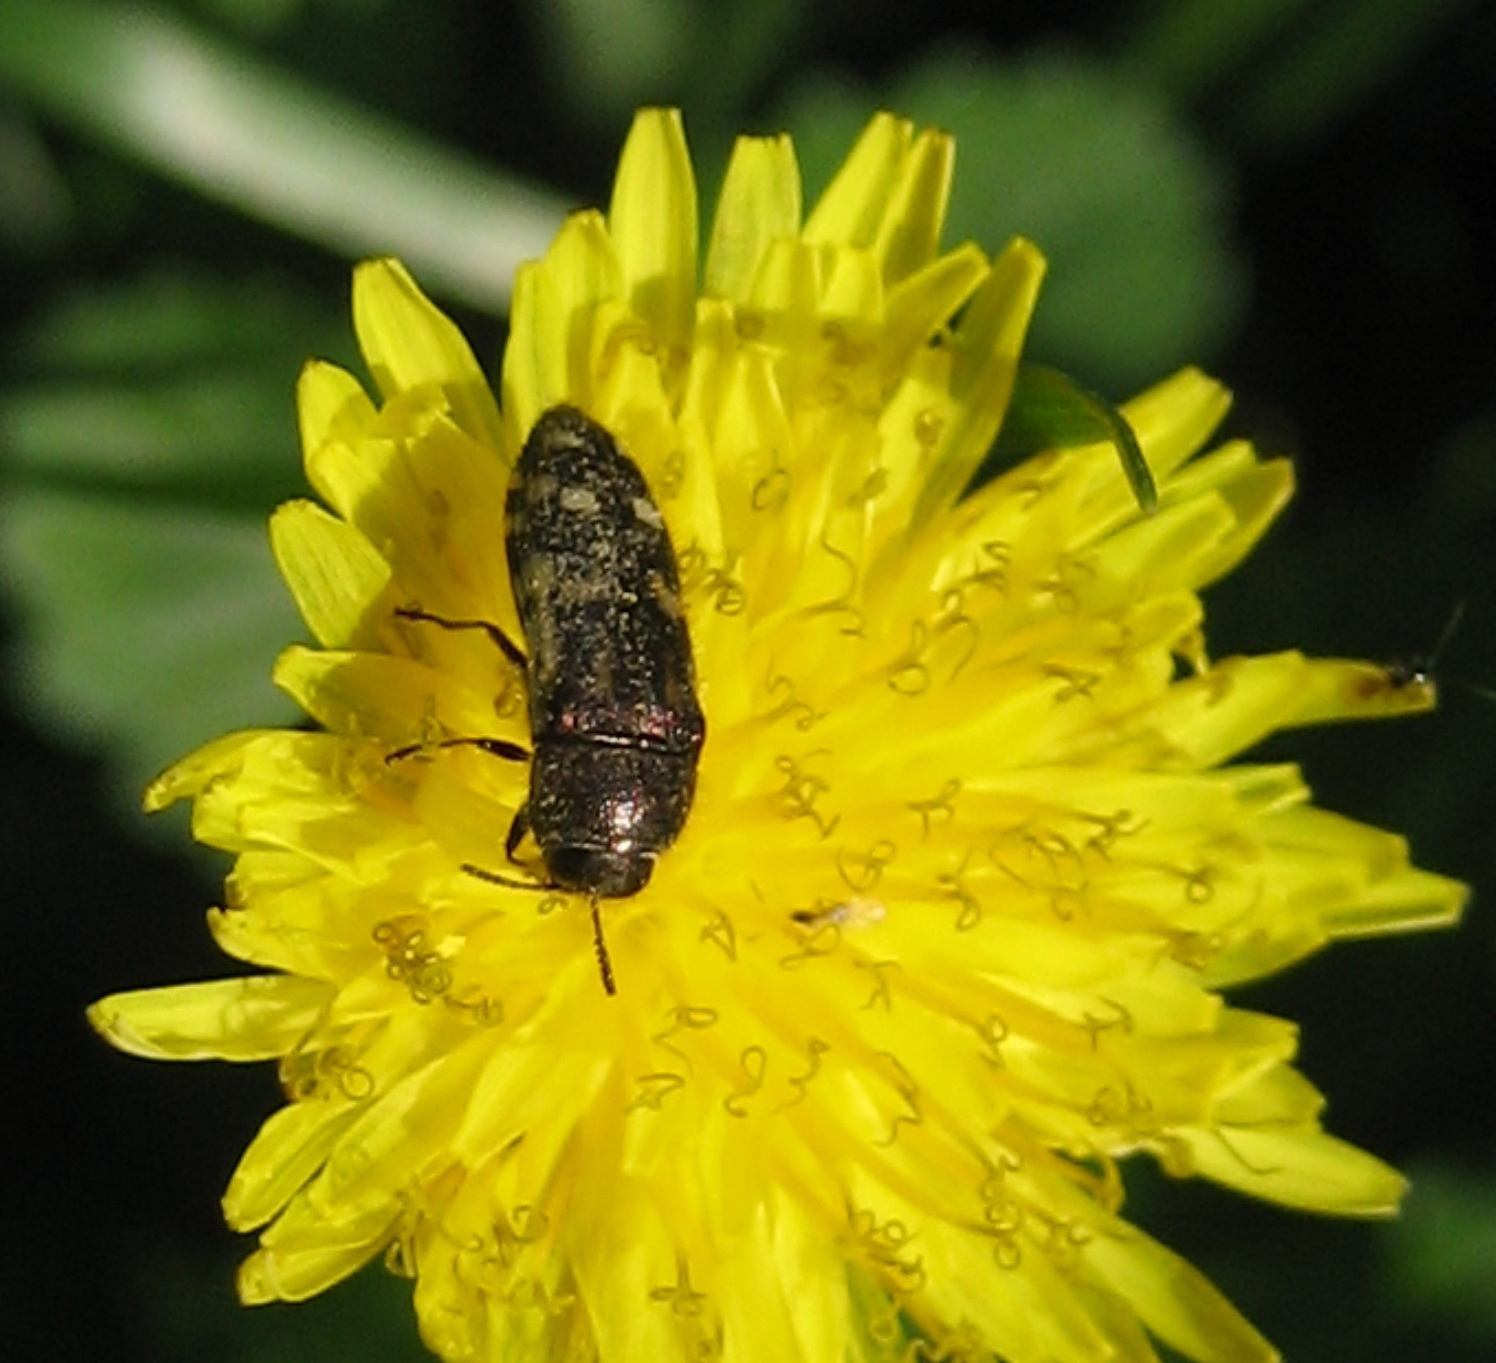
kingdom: Animalia
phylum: Arthropoda
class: Insecta
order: Coleoptera
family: Buprestidae
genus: Acmaeodera
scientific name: Acmaeodera pulchella
